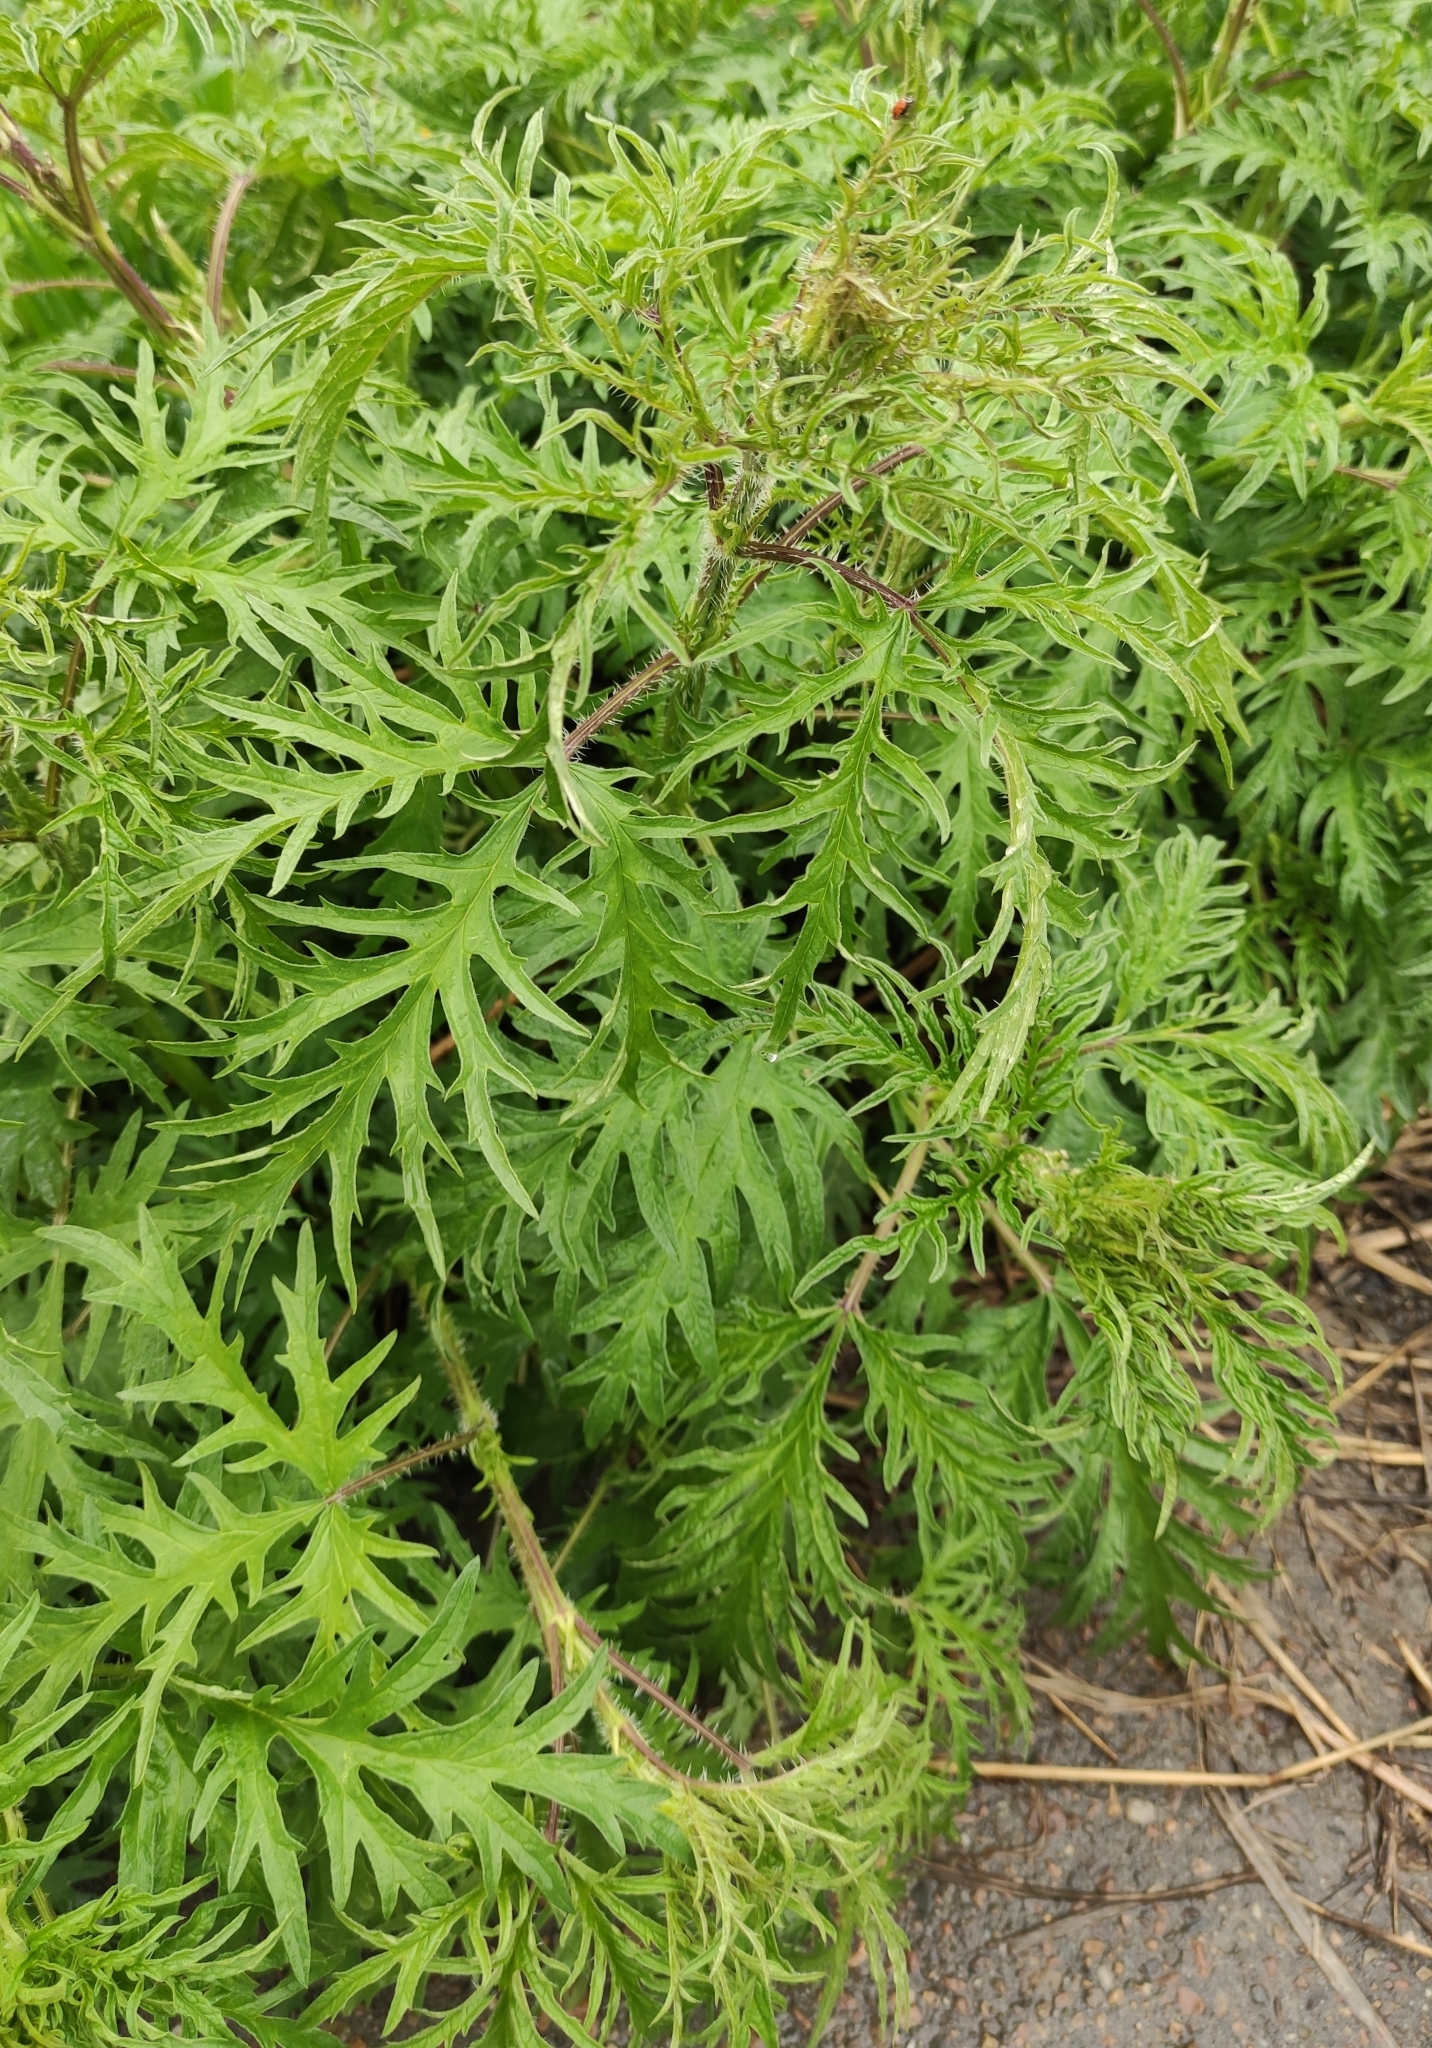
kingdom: Plantae
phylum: Tracheophyta
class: Magnoliopsida
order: Rosales
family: Urticaceae
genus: Urtica
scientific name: Urtica cannabina
